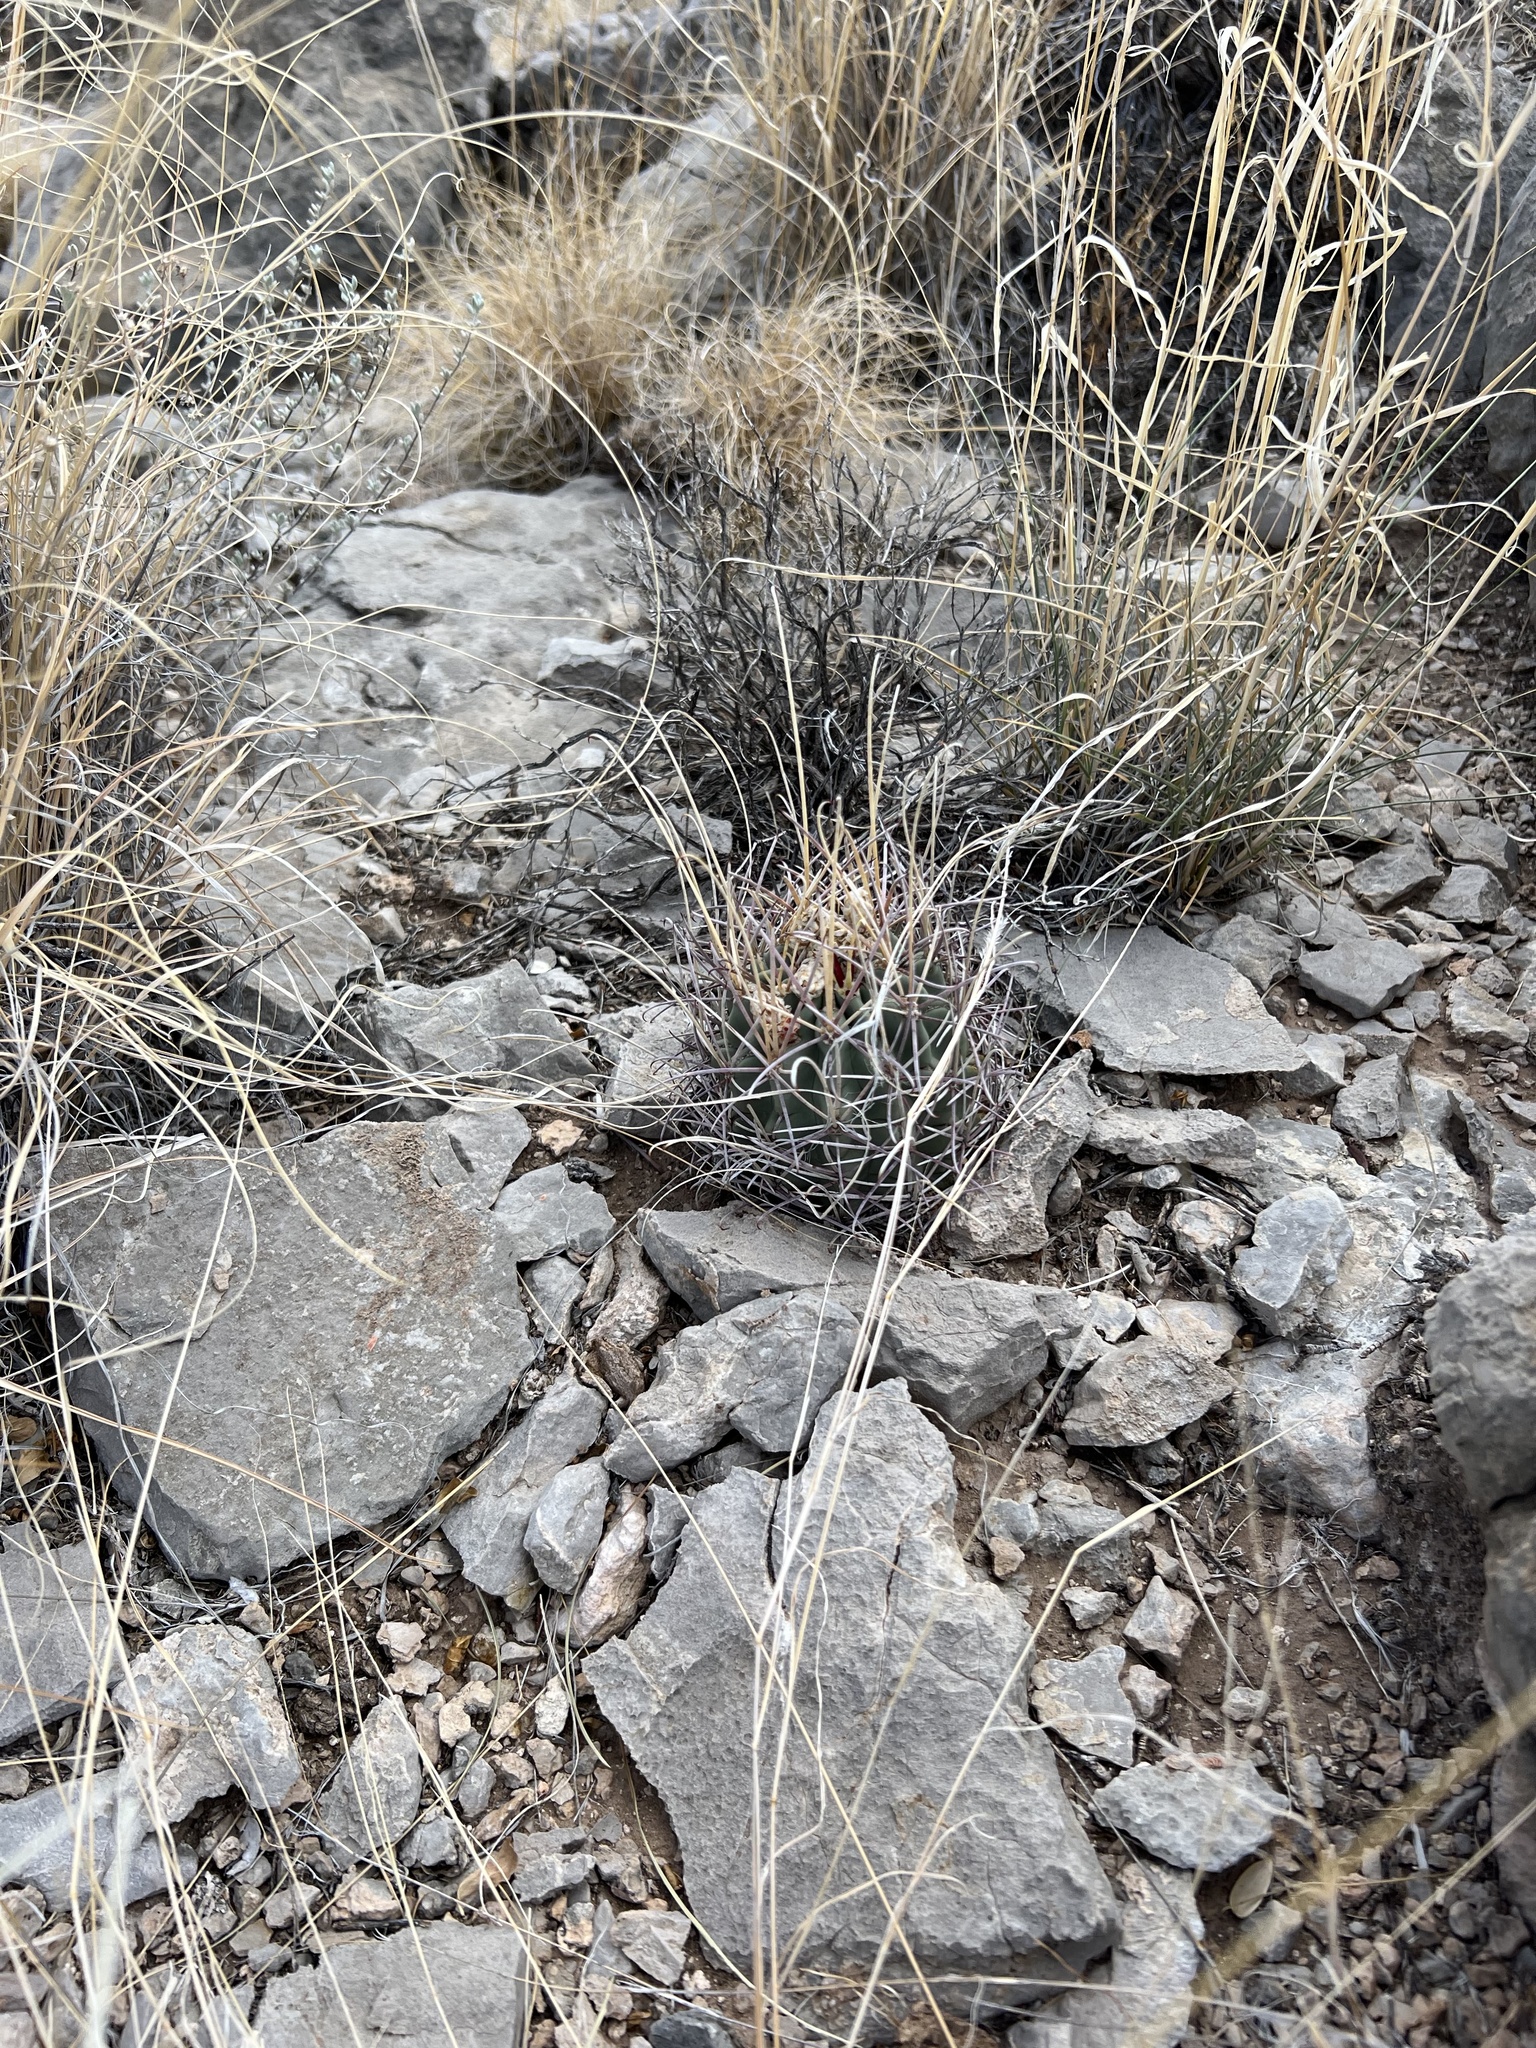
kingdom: Plantae
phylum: Tracheophyta
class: Magnoliopsida
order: Caryophyllales
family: Cactaceae
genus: Ferocactus
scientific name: Ferocactus uncinatus
